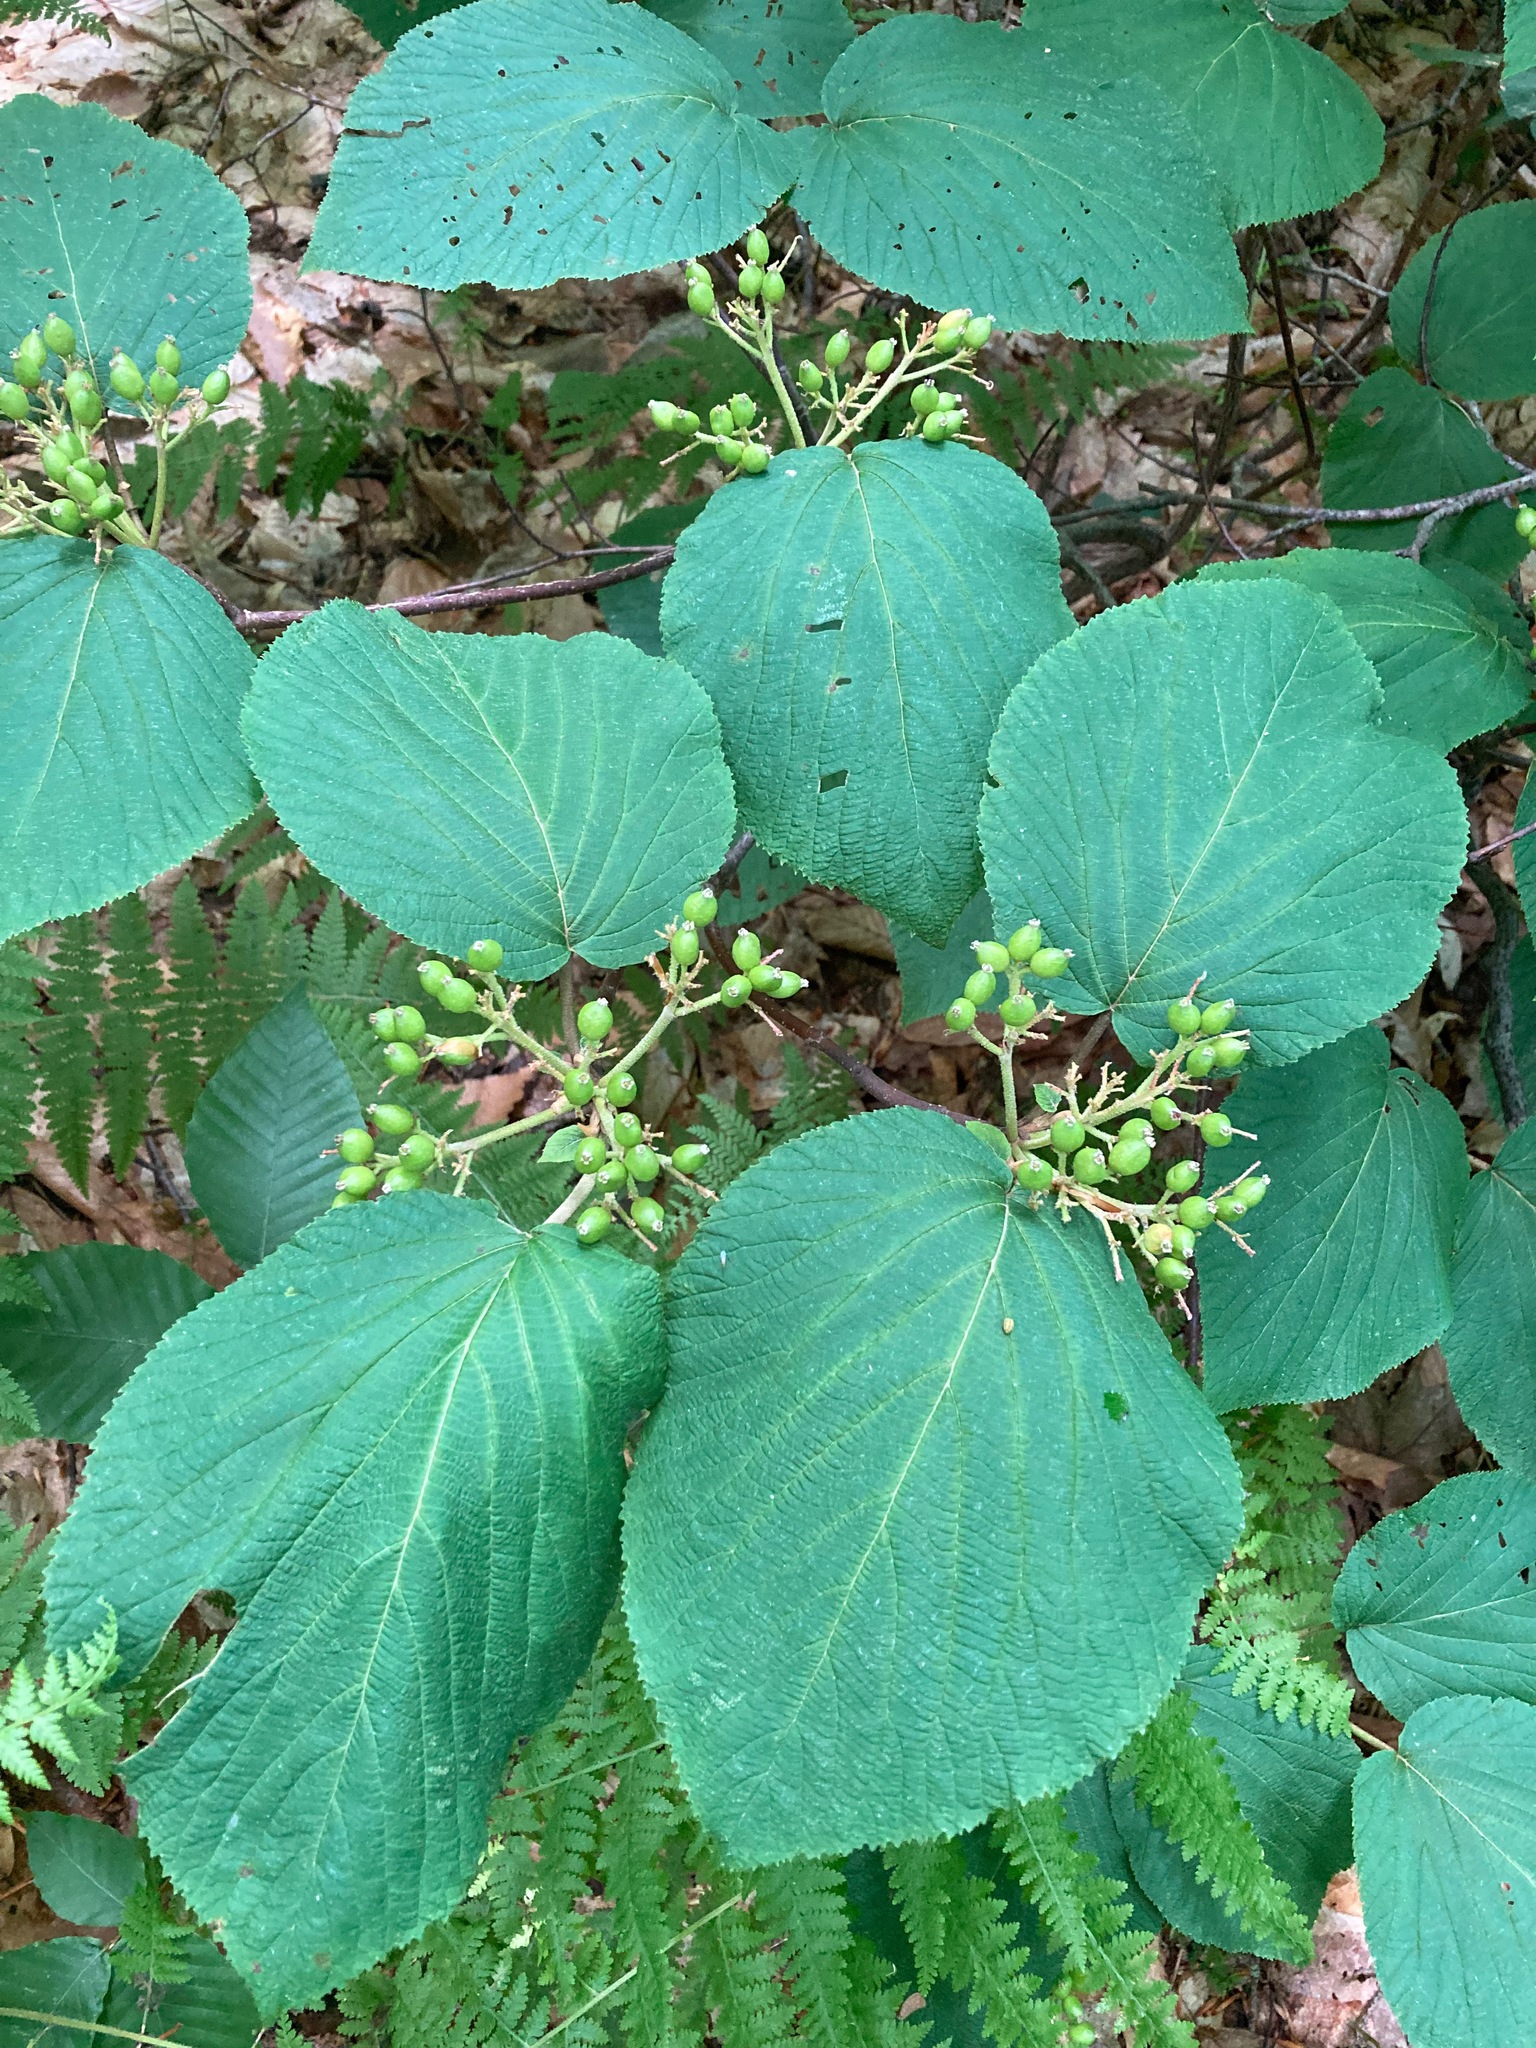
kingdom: Plantae
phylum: Tracheophyta
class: Magnoliopsida
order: Dipsacales
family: Viburnaceae
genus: Viburnum
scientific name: Viburnum lantanoides
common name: Hobblebush
